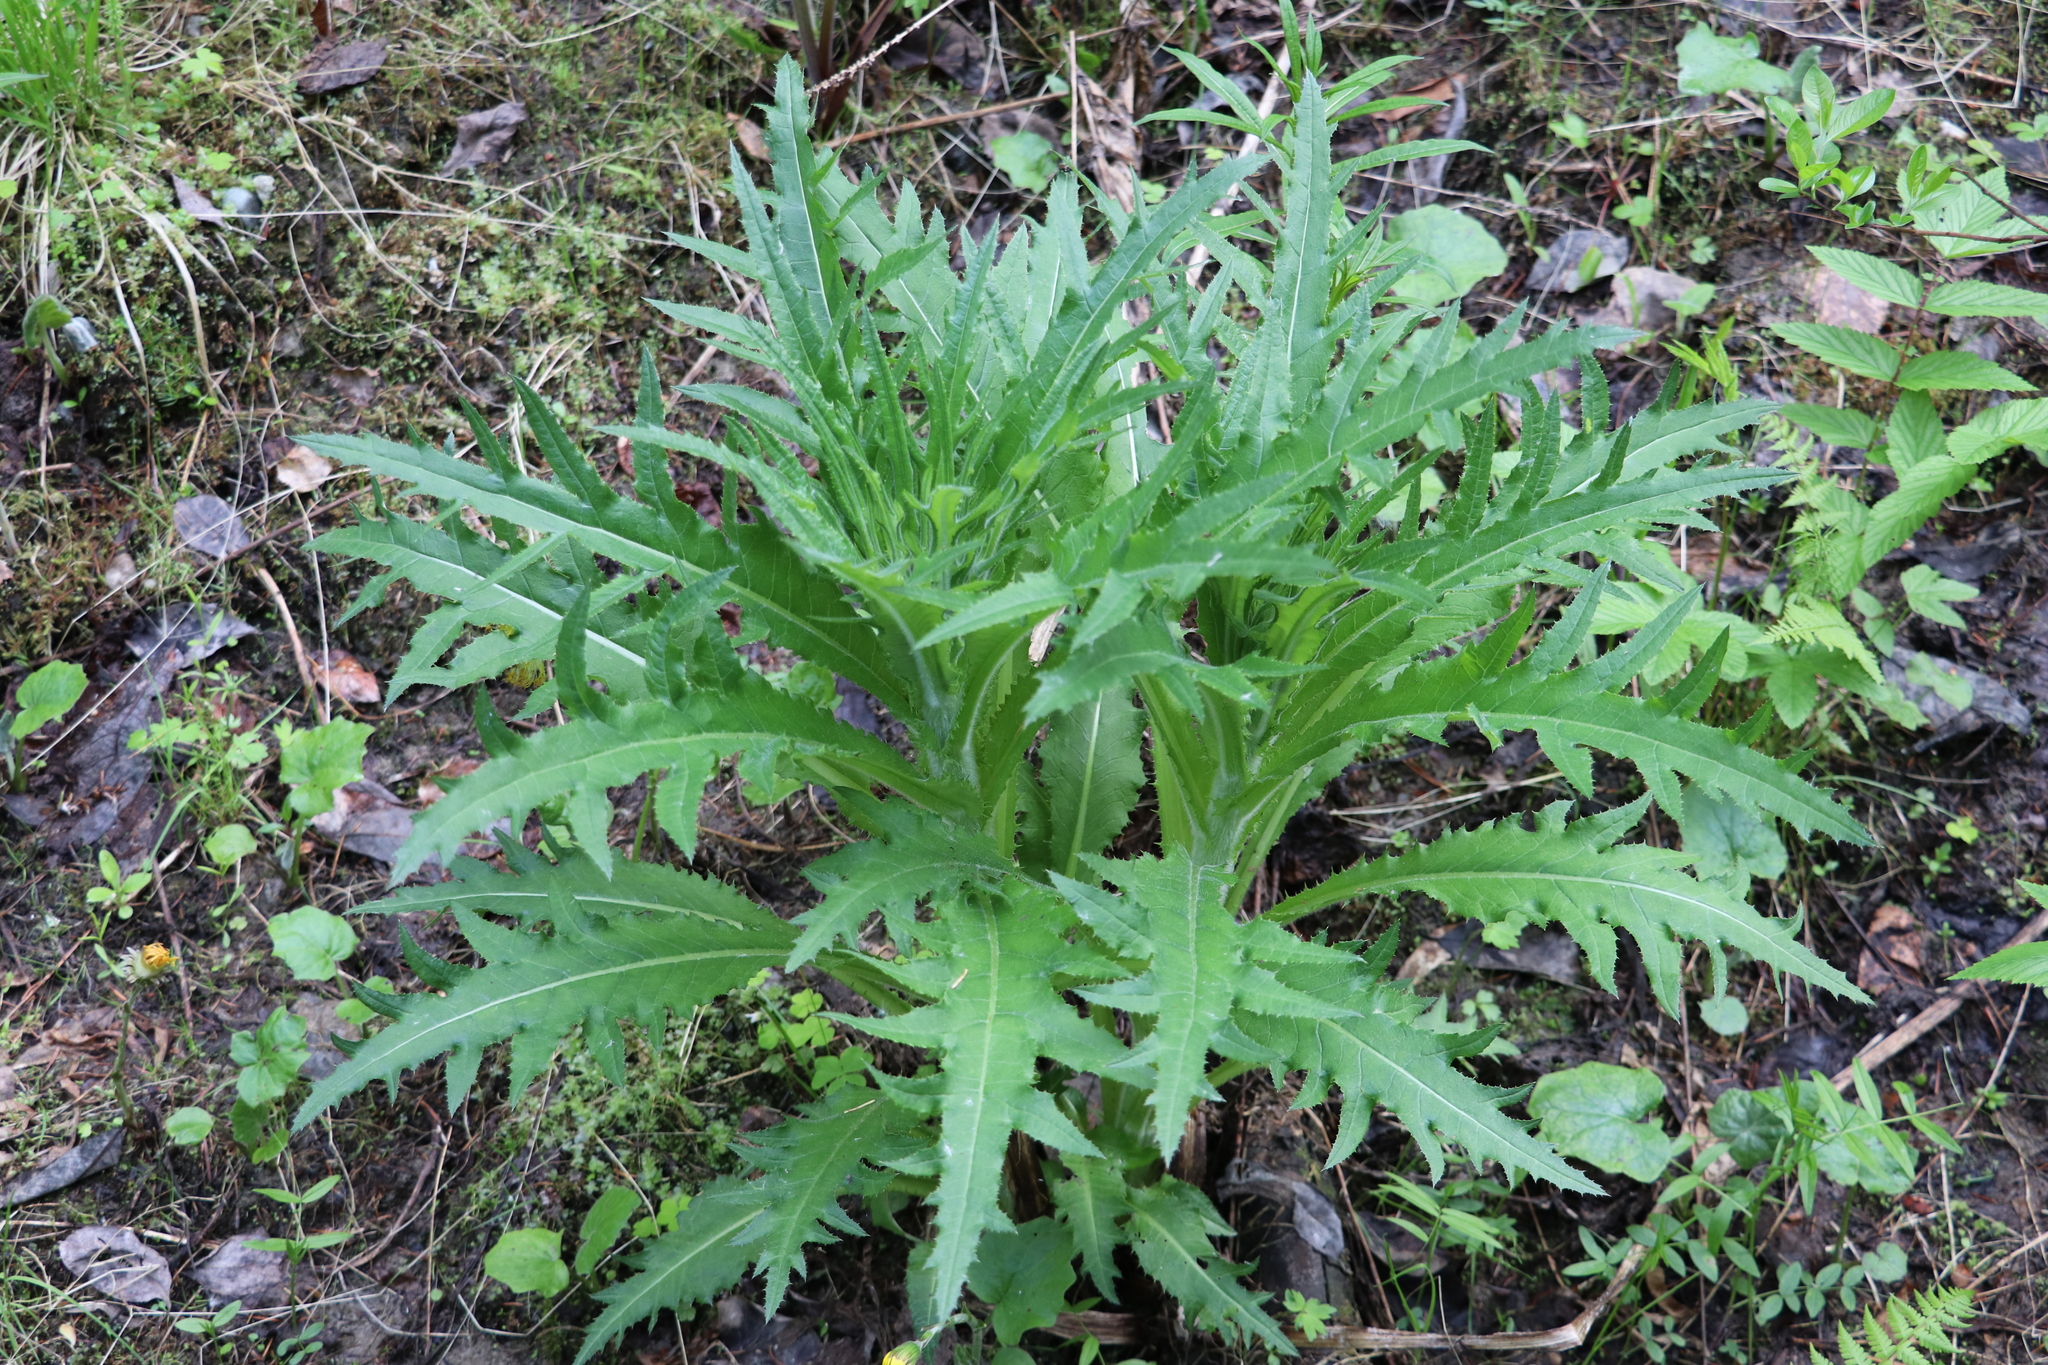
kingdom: Plantae
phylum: Tracheophyta
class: Magnoliopsida
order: Asterales
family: Asteraceae
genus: Cirsium
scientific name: Cirsium heterophyllum
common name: Melancholy thistle
